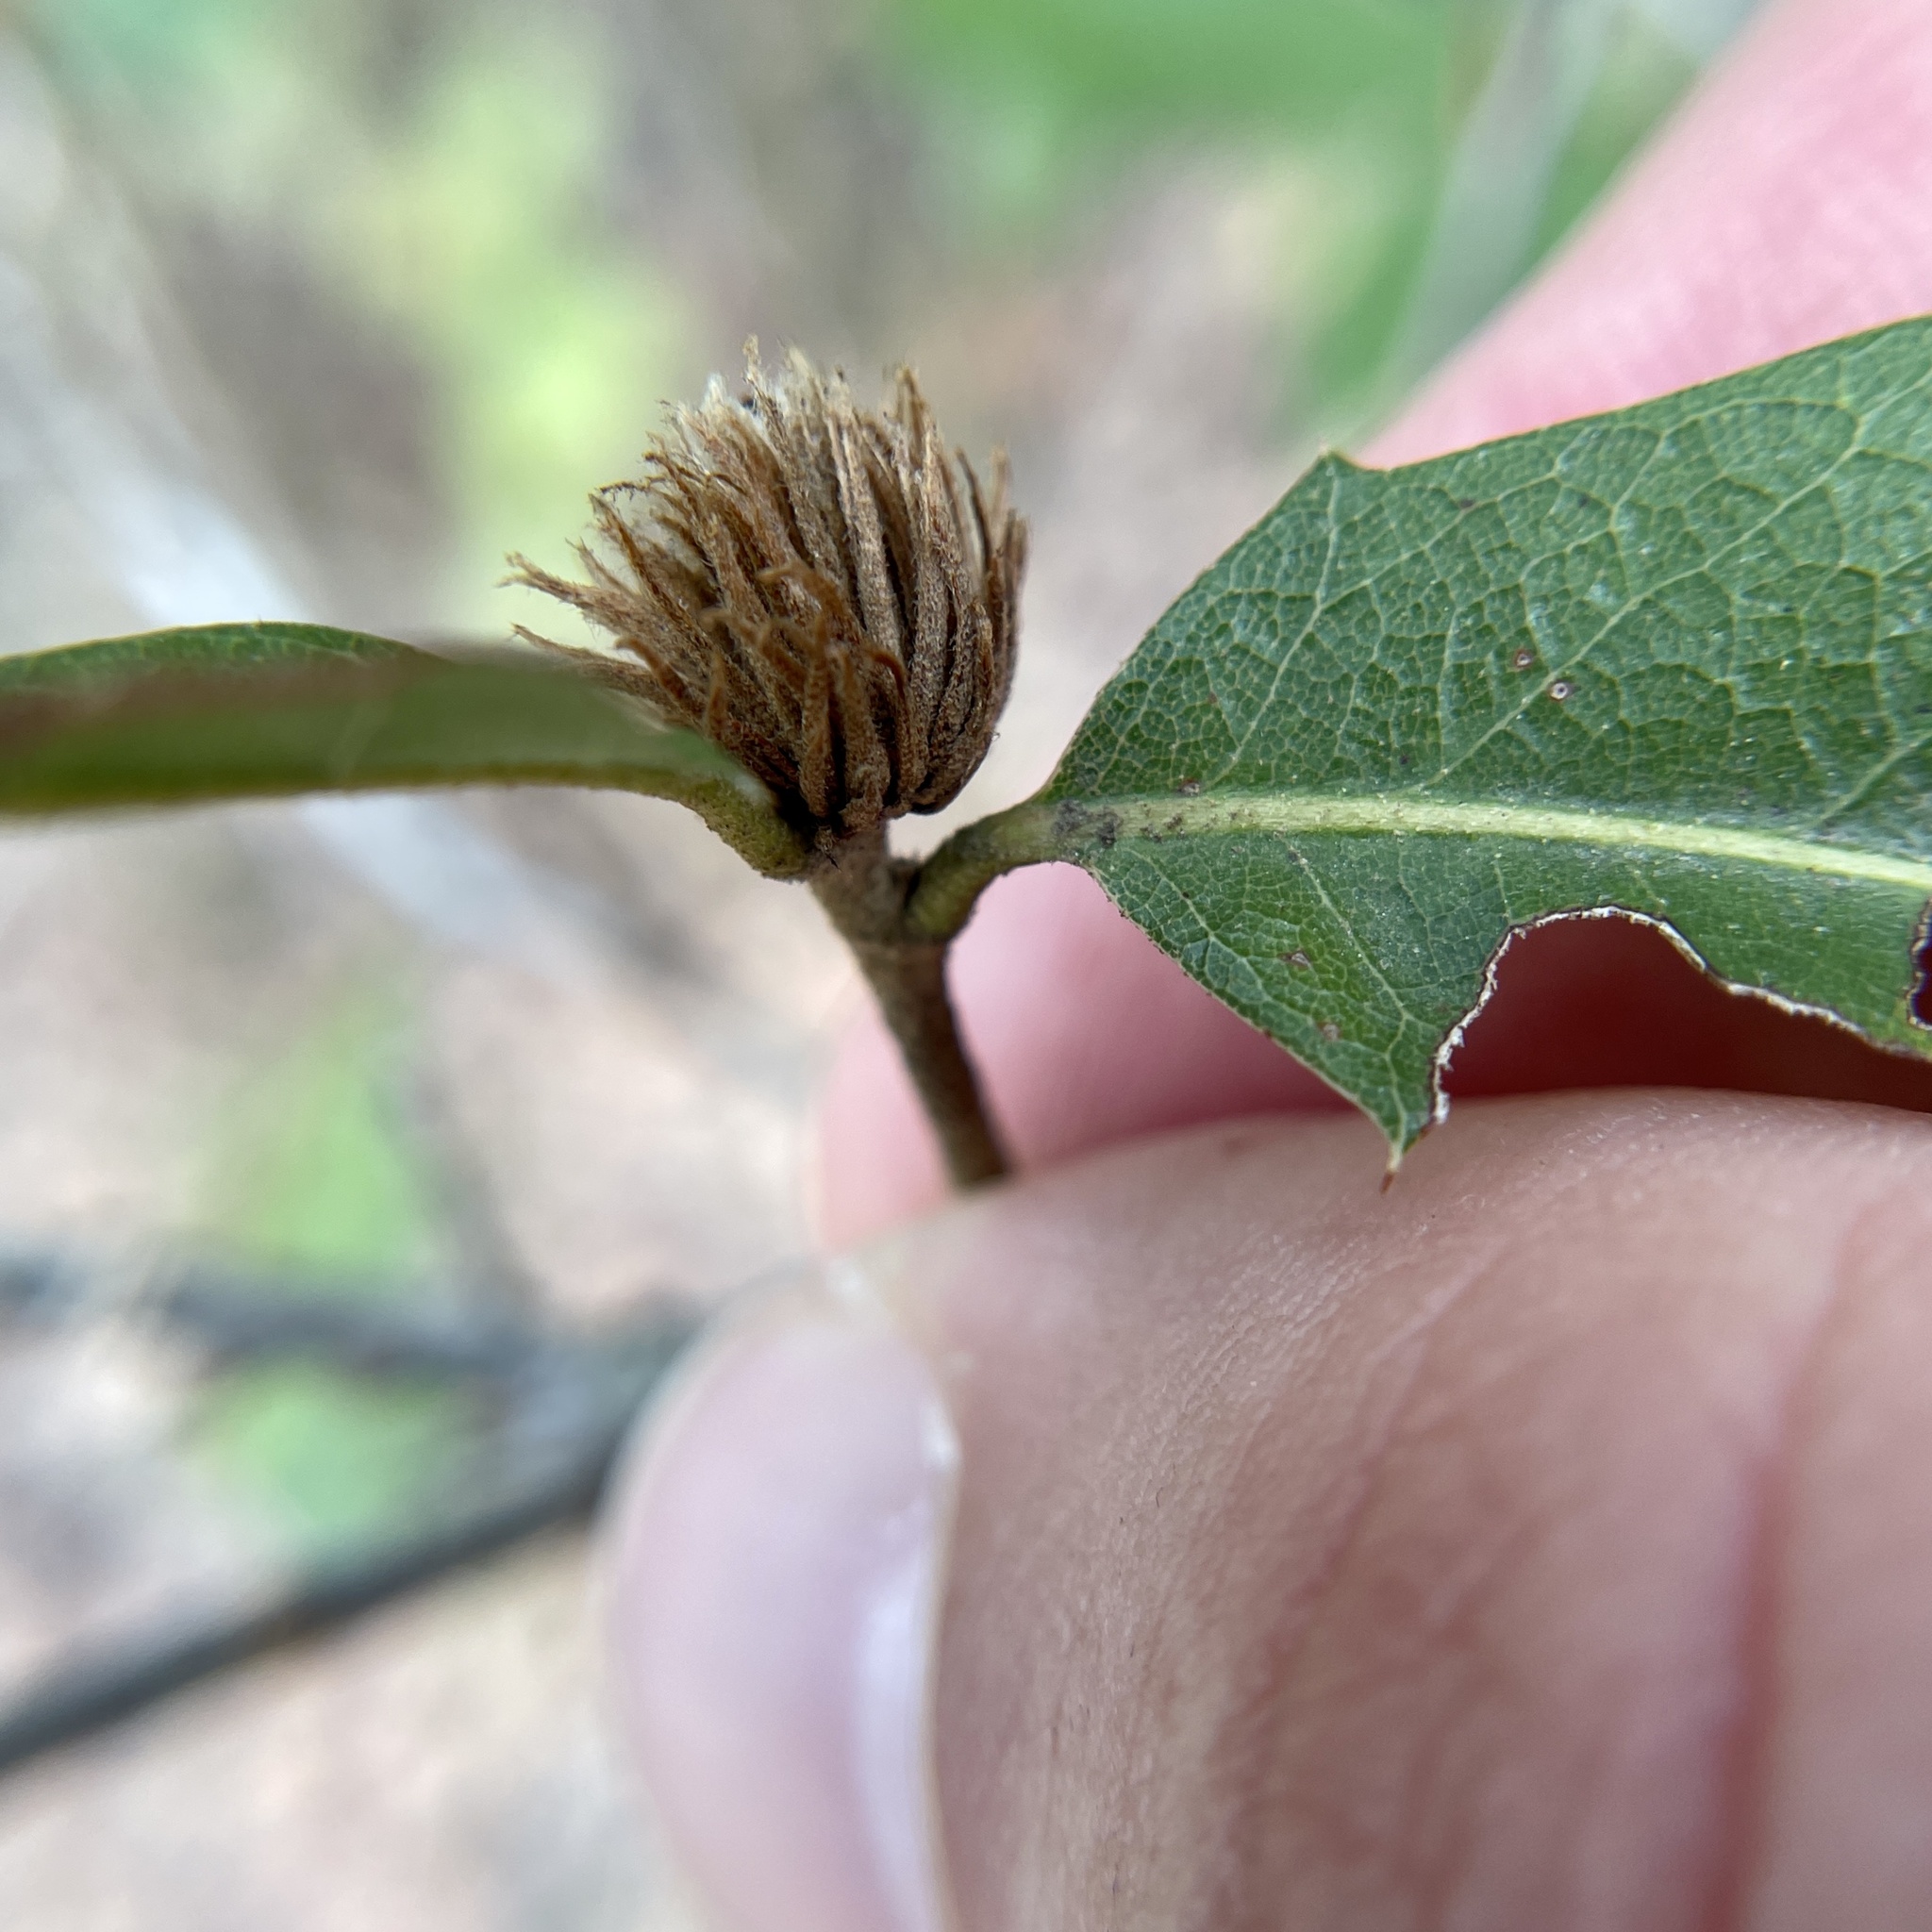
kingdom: Animalia
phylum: Arthropoda
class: Insecta
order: Hymenoptera
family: Cynipidae
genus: Andricus
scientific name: Andricus quercusfoliatus
